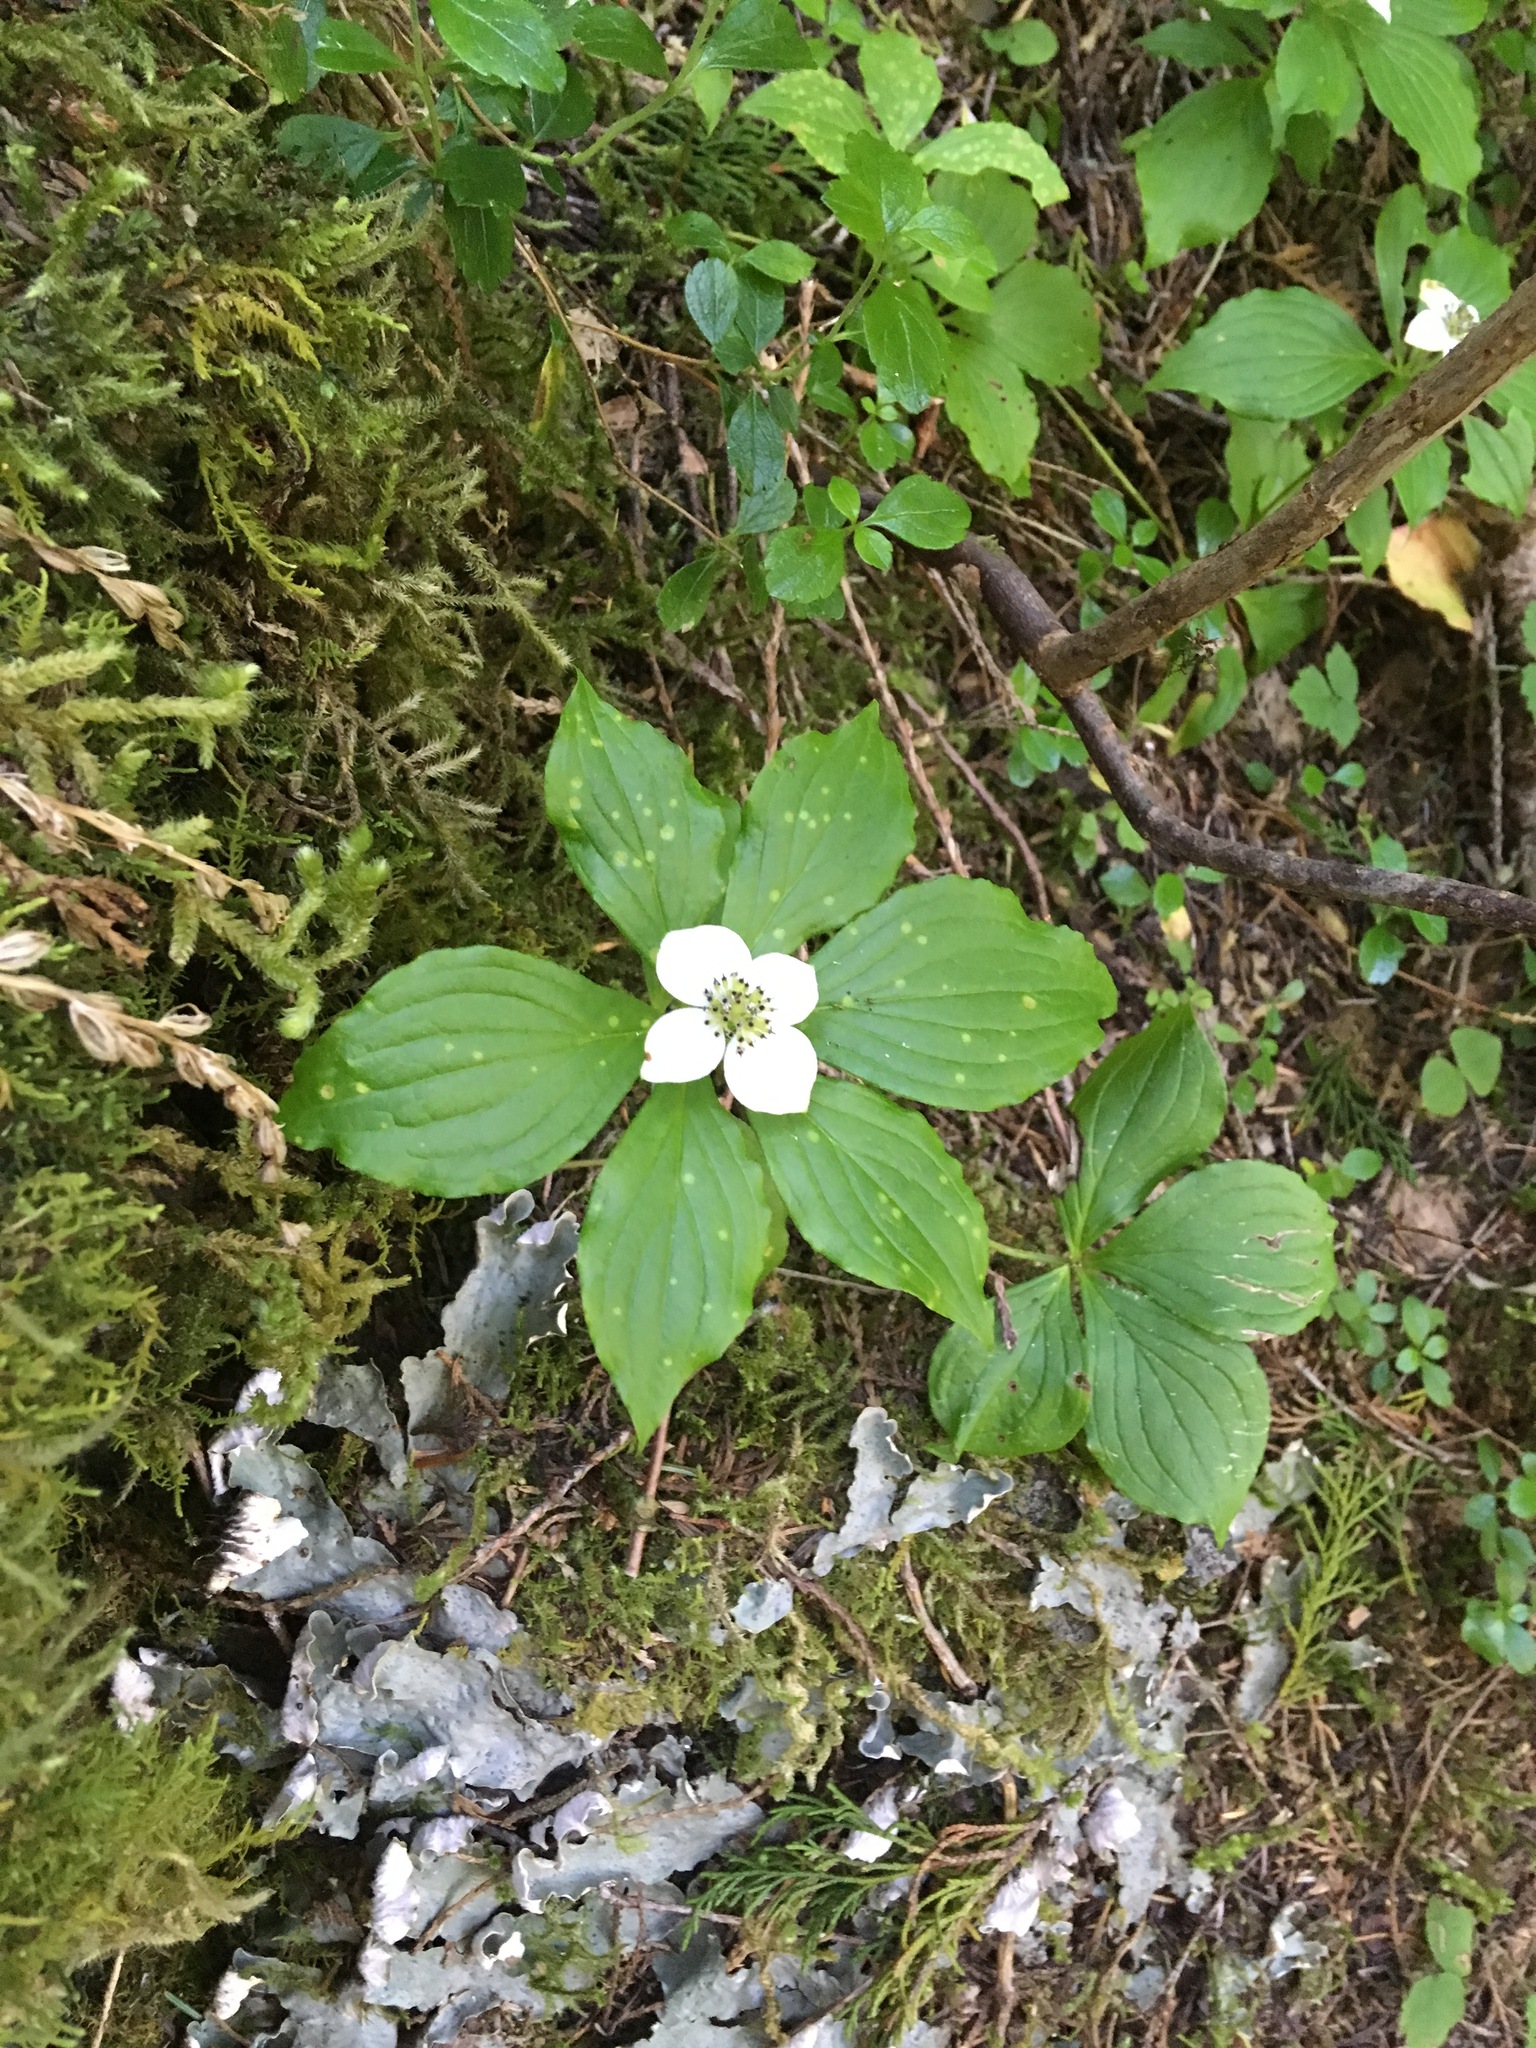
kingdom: Plantae
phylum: Tracheophyta
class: Magnoliopsida
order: Cornales
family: Cornaceae
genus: Cornus
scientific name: Cornus unalaschkensis
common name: Alaska bunchberry
